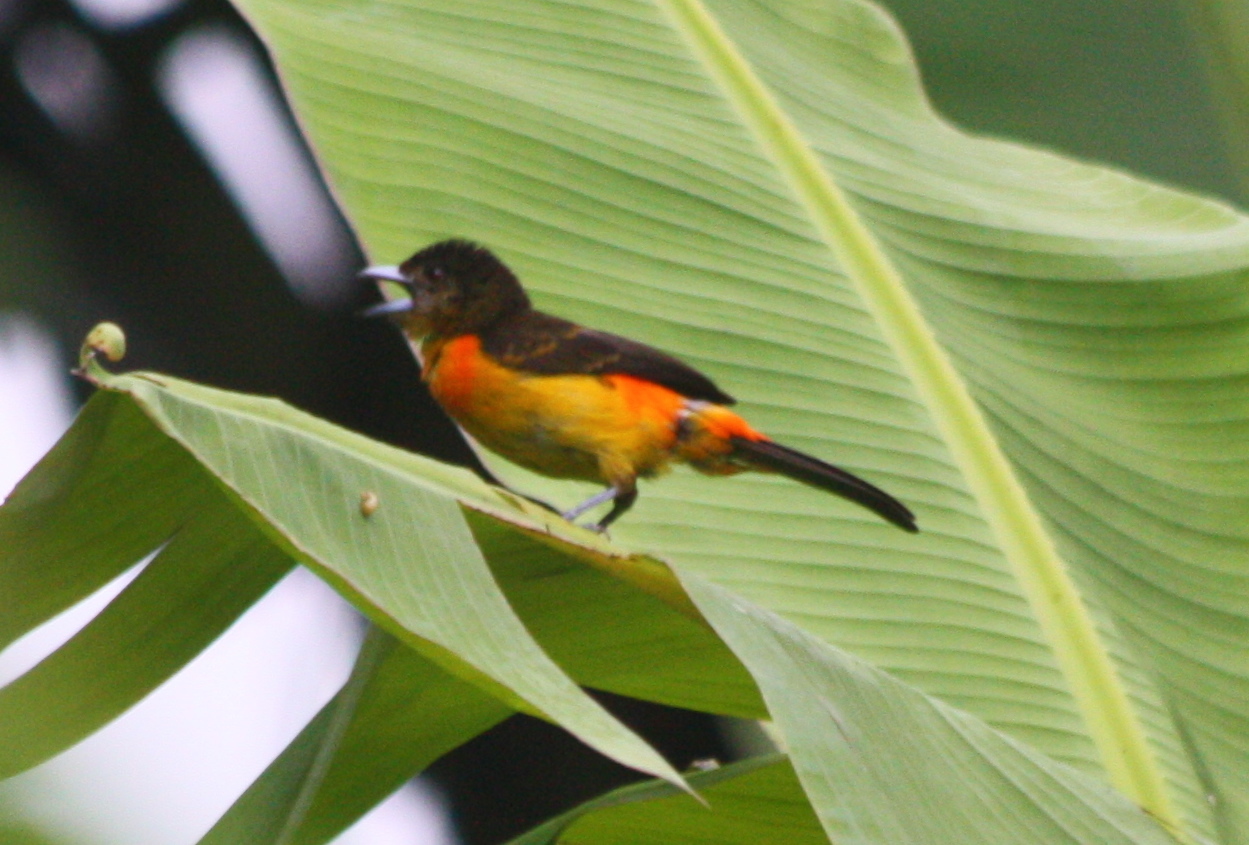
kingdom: Animalia
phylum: Chordata
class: Aves
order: Passeriformes
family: Thraupidae
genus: Ramphocelus
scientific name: Ramphocelus flammigerus
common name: Flame-rumped tanager
